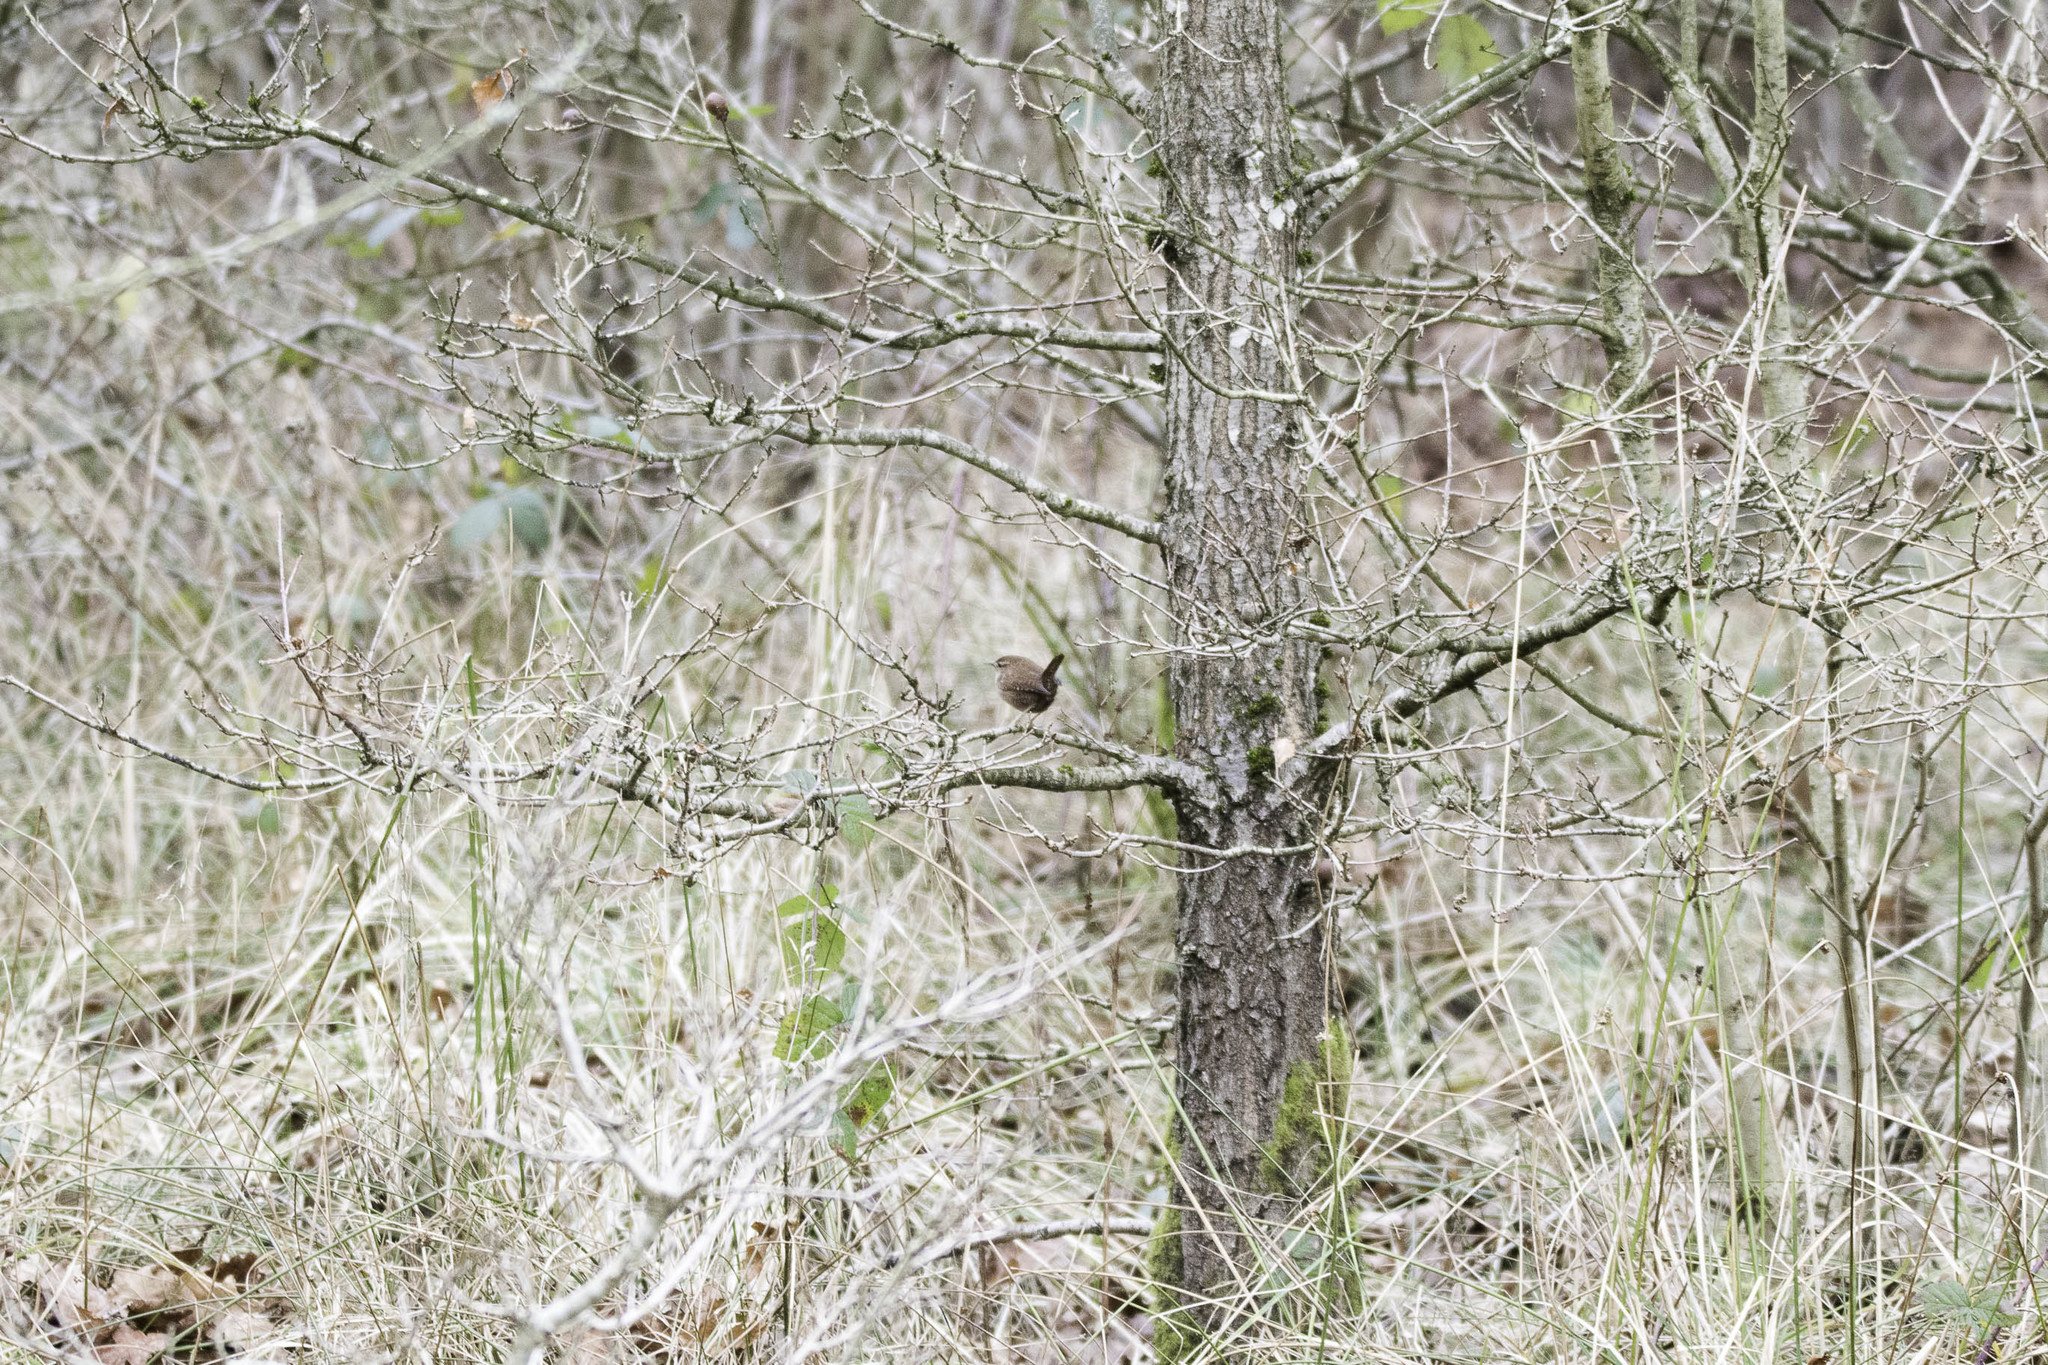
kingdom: Animalia
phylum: Chordata
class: Aves
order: Passeriformes
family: Troglodytidae
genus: Troglodytes
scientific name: Troglodytes troglodytes
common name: Eurasian wren
